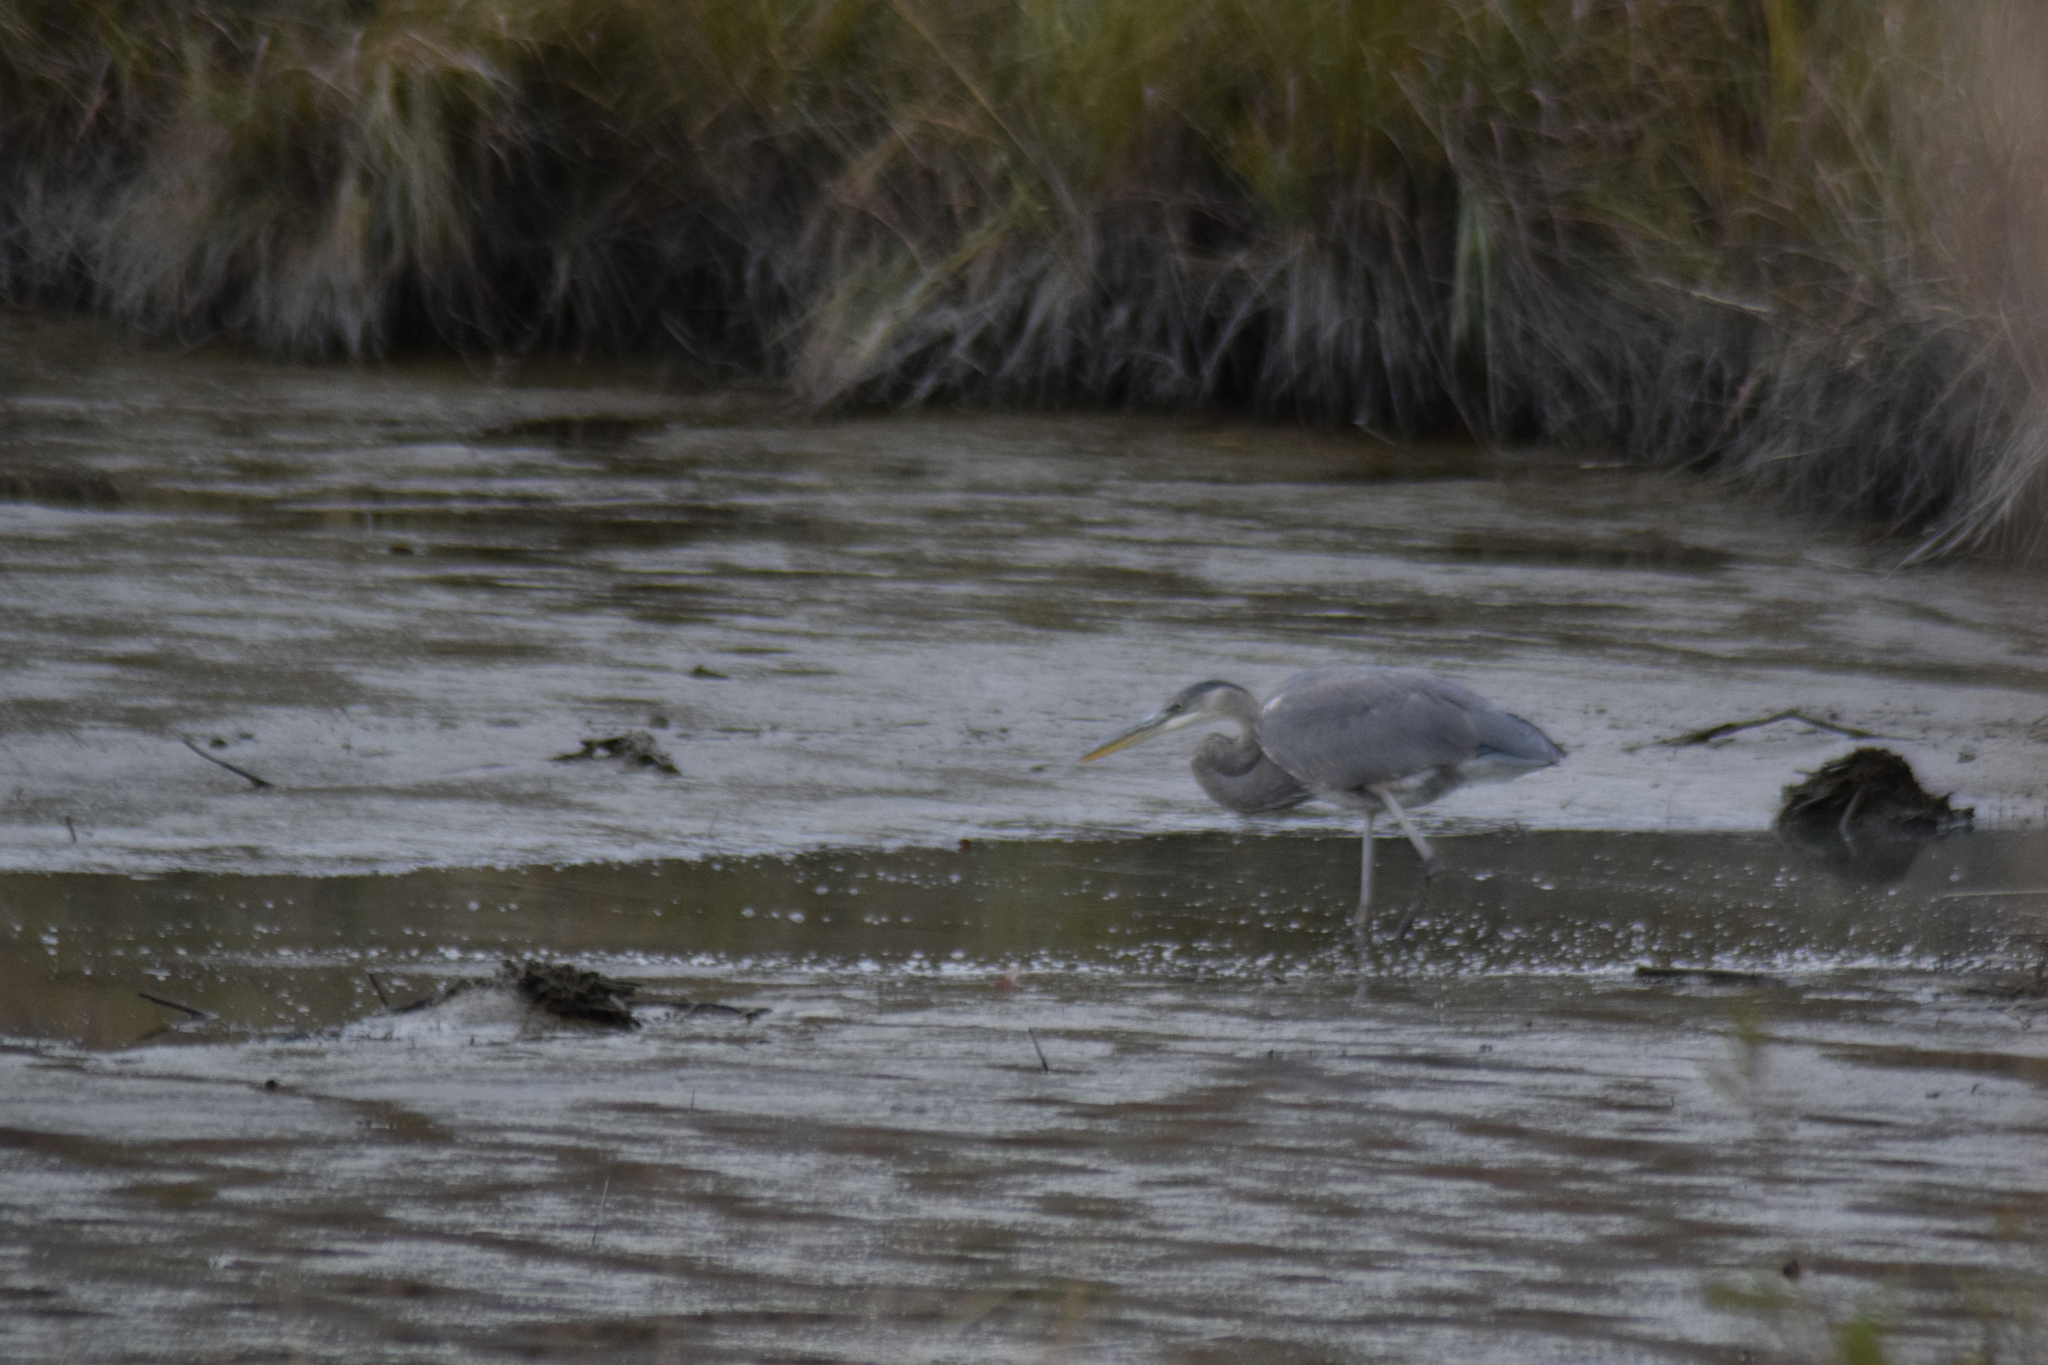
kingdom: Animalia
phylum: Chordata
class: Aves
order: Pelecaniformes
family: Ardeidae
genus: Ardea
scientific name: Ardea herodias
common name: Great blue heron
